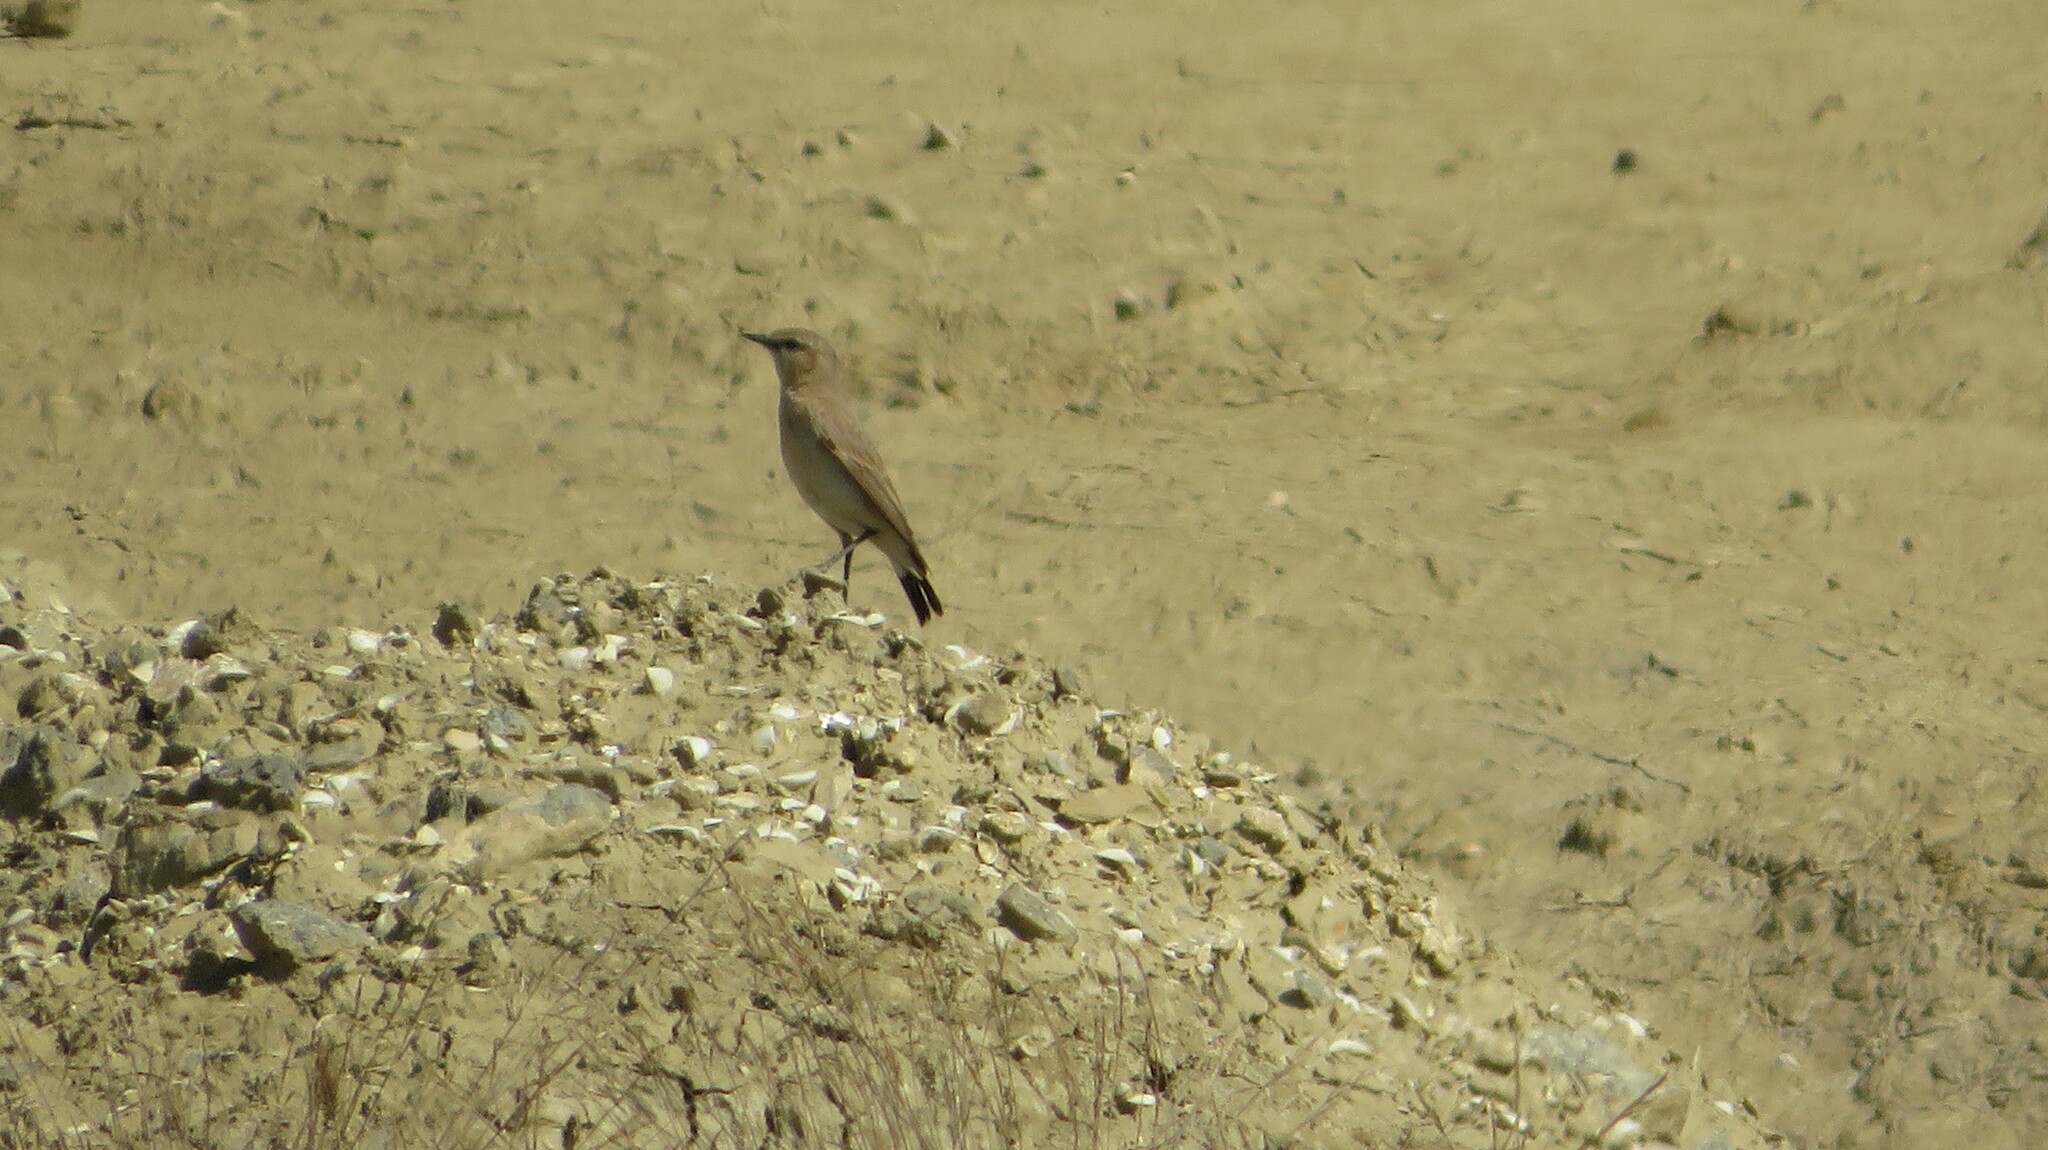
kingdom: Animalia
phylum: Chordata
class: Aves
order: Passeriformes
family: Muscicapidae
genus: Oenanthe
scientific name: Oenanthe isabellina
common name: Isabelline wheatear
